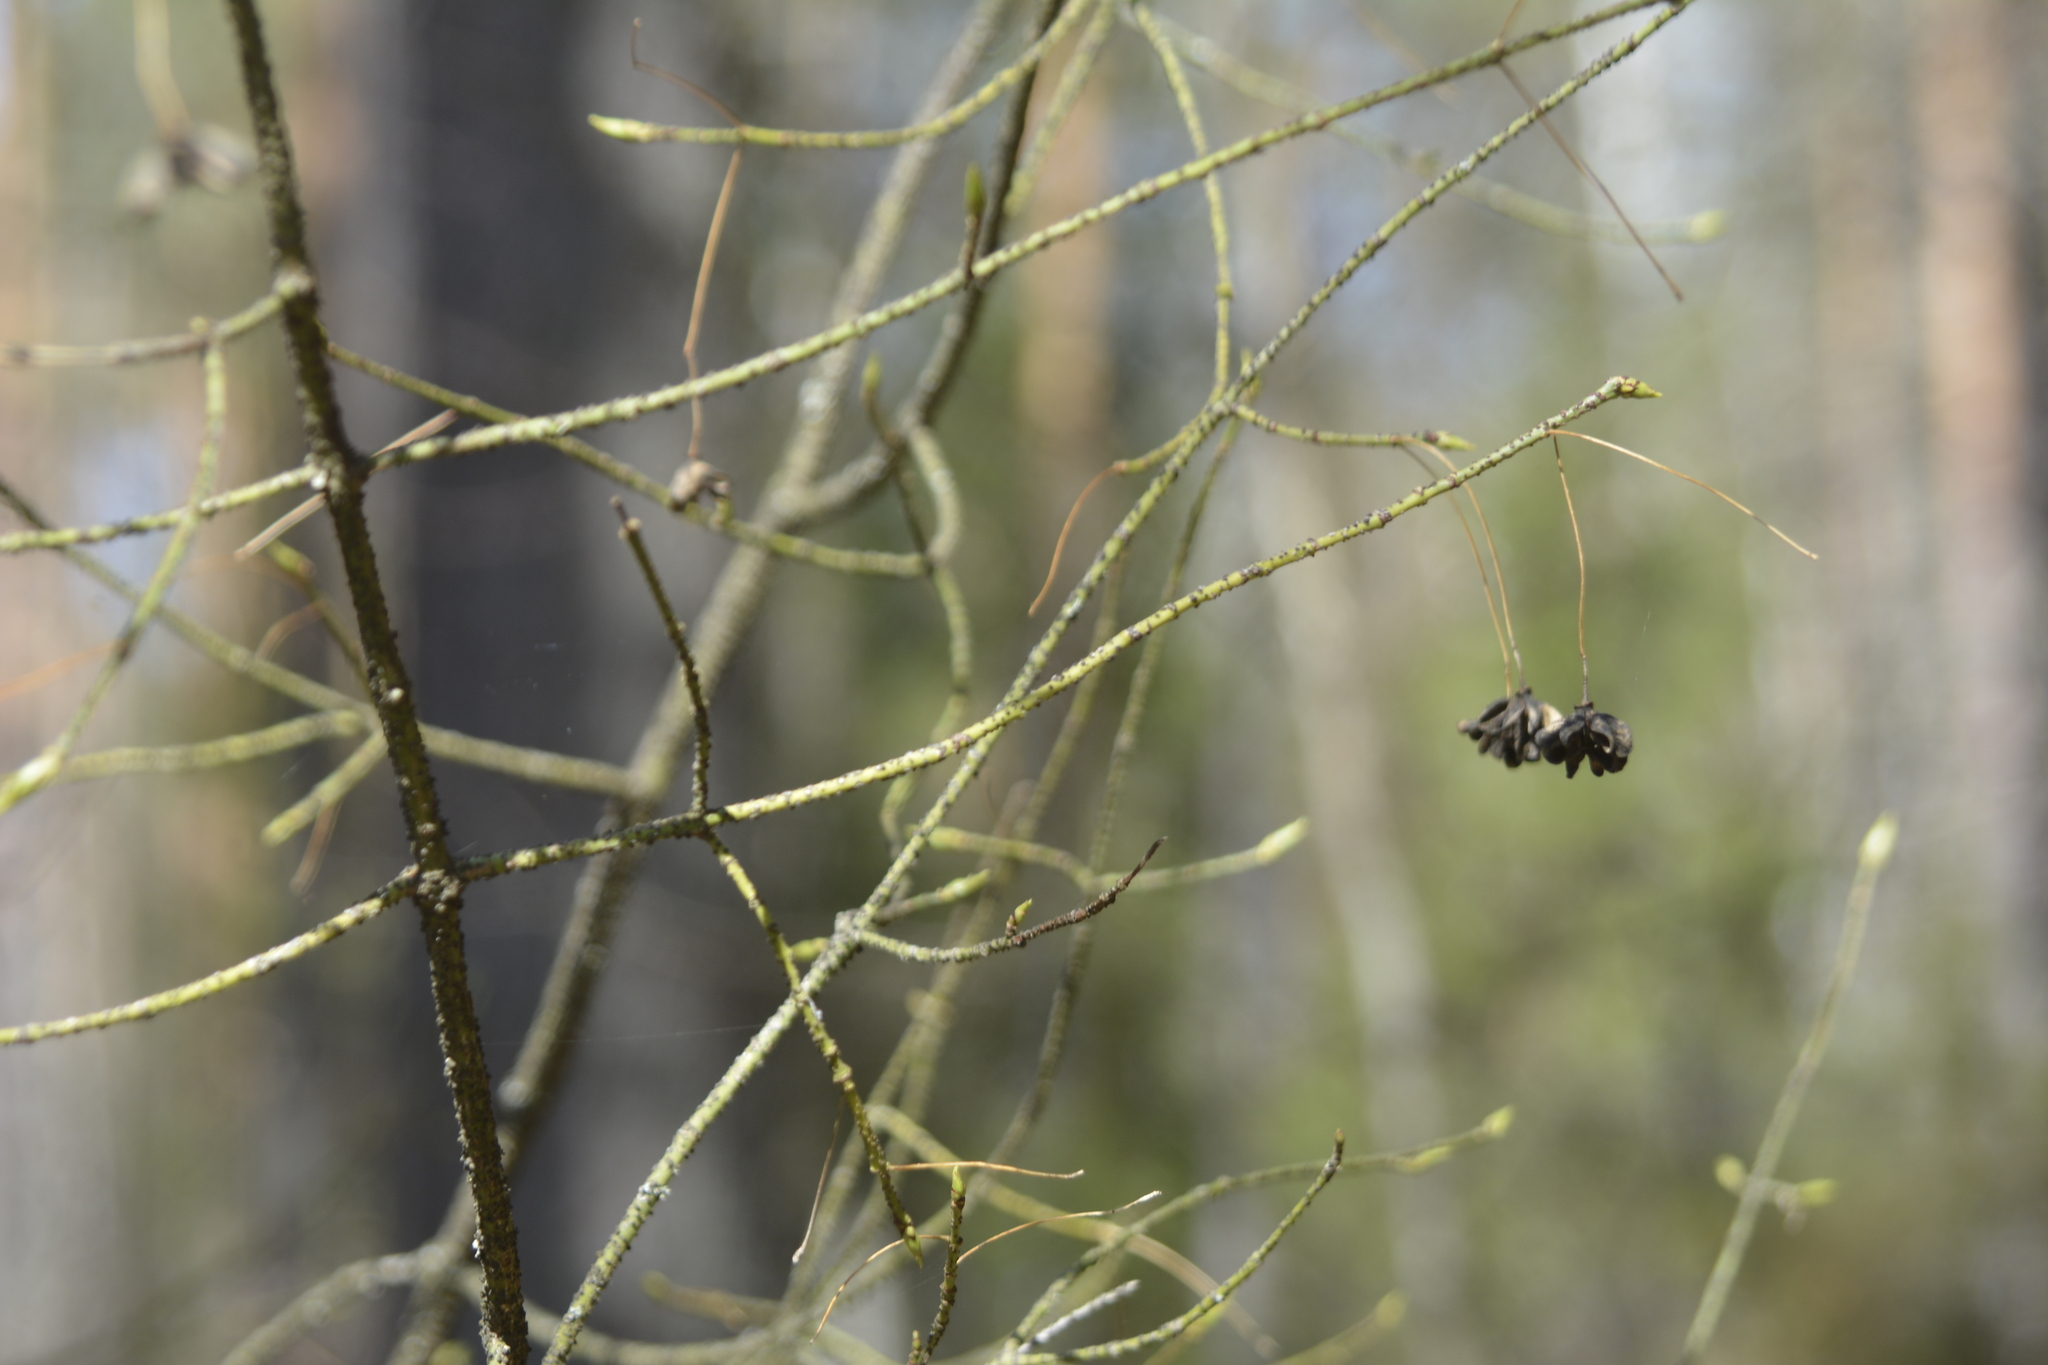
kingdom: Plantae
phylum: Tracheophyta
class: Magnoliopsida
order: Celastrales
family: Celastraceae
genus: Euonymus
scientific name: Euonymus verrucosus
